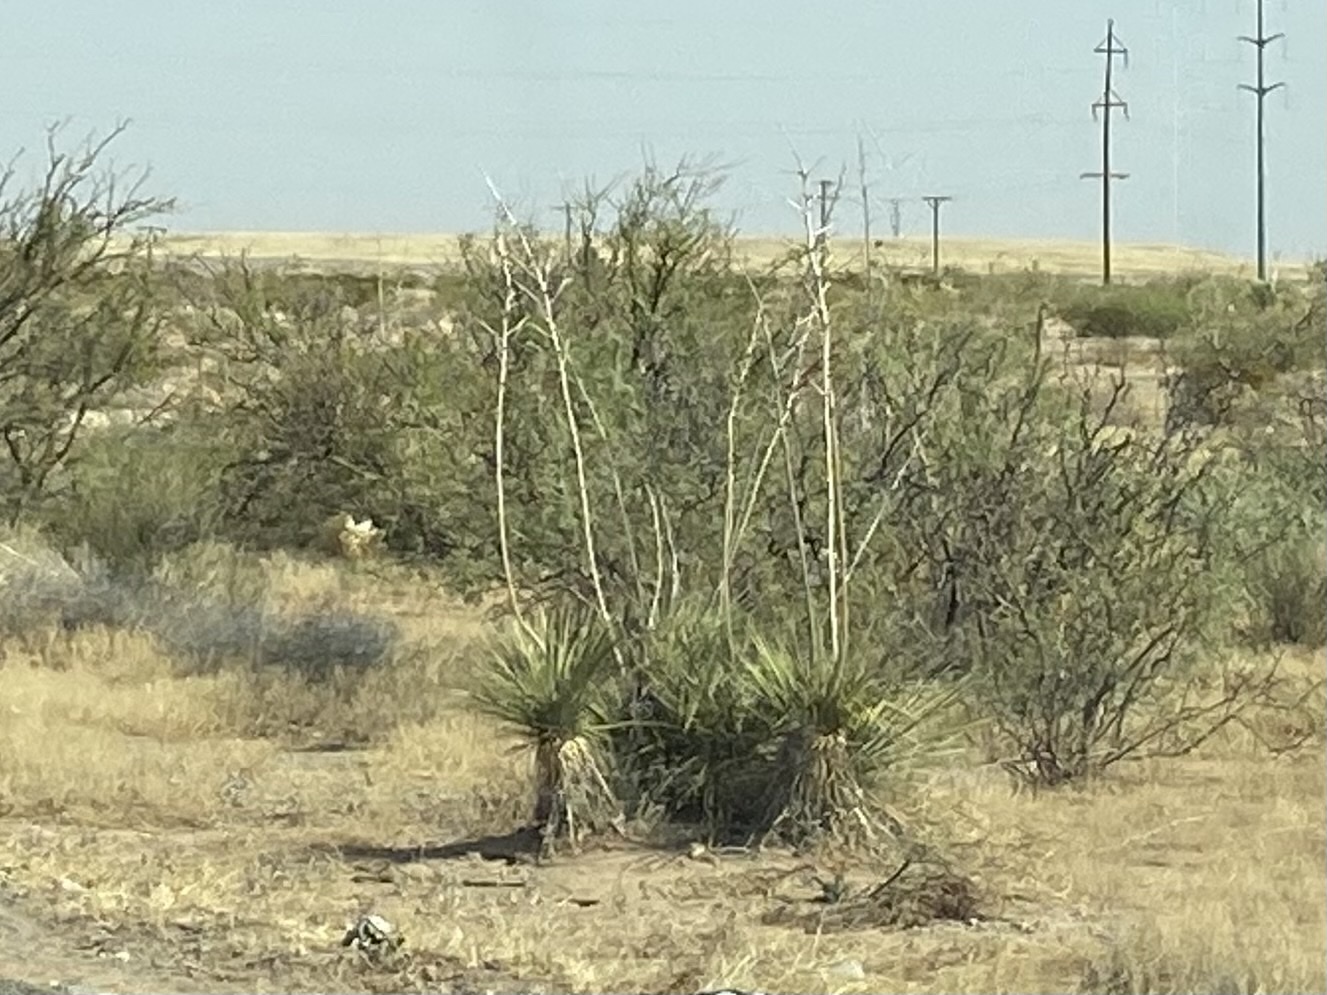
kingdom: Plantae
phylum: Tracheophyta
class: Liliopsida
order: Asparagales
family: Asparagaceae
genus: Yucca
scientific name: Yucca elata
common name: Palmella
